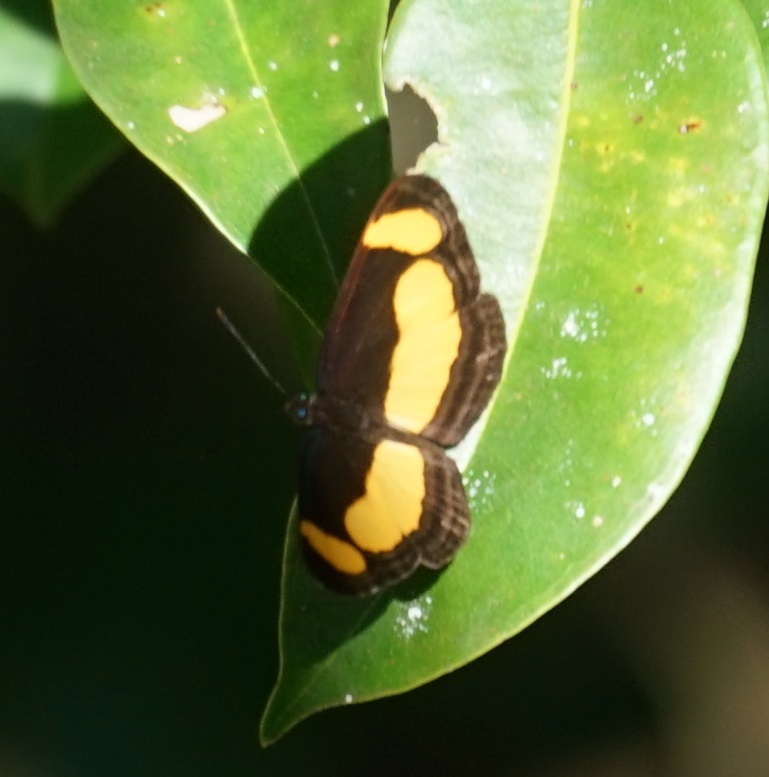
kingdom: Animalia
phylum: Arthropoda
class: Insecta
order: Lepidoptera
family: Nymphalidae
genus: Pantoporia
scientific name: Pantoporia consimilis
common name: Orange plane
